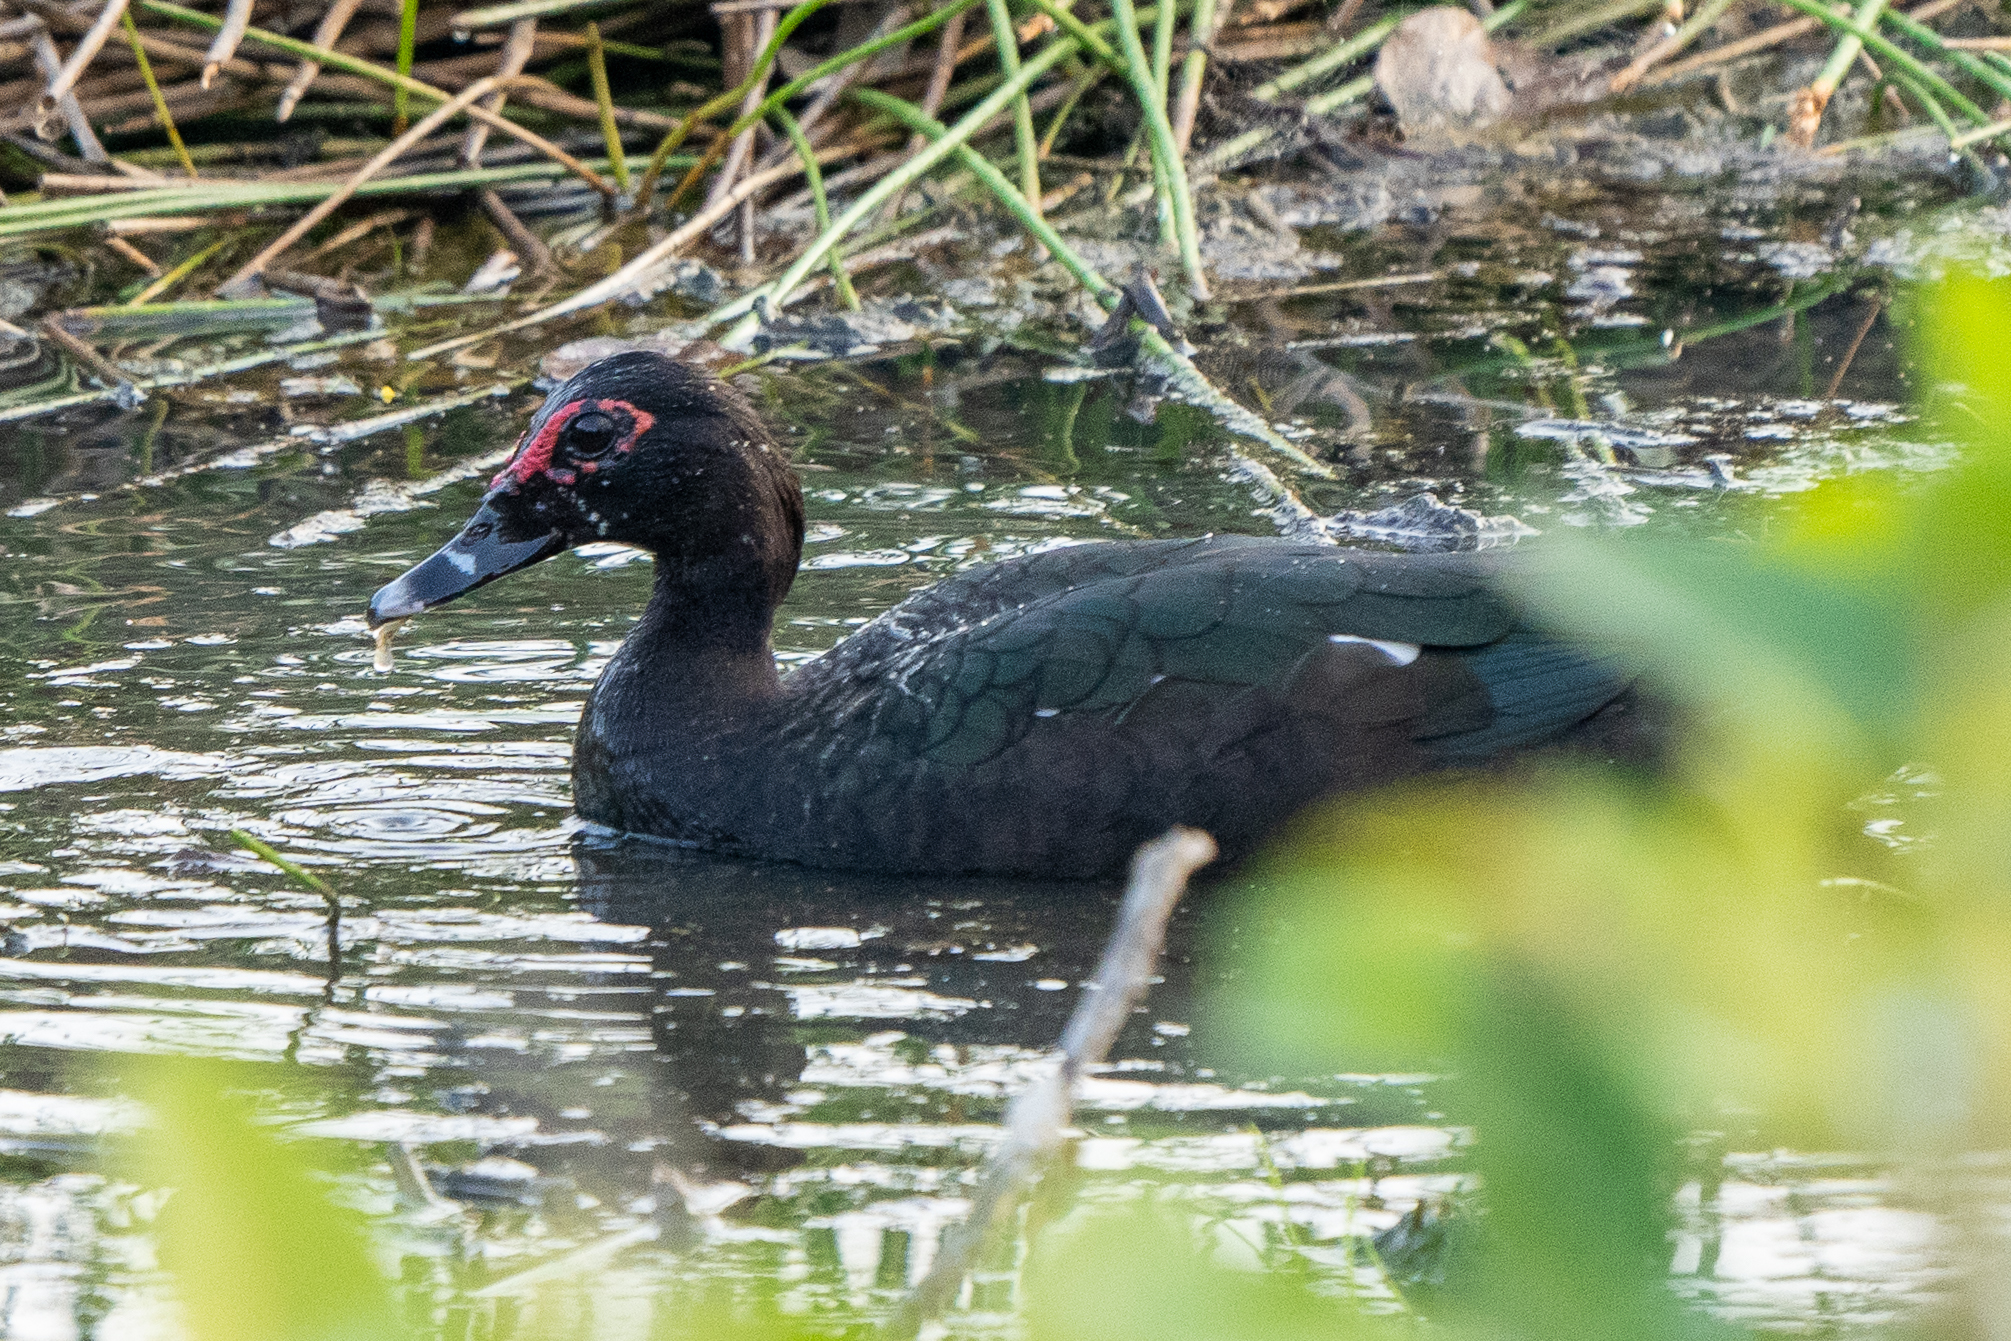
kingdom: Animalia
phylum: Chordata
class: Aves
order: Anseriformes
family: Anatidae
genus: Cairina
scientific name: Cairina moschata
